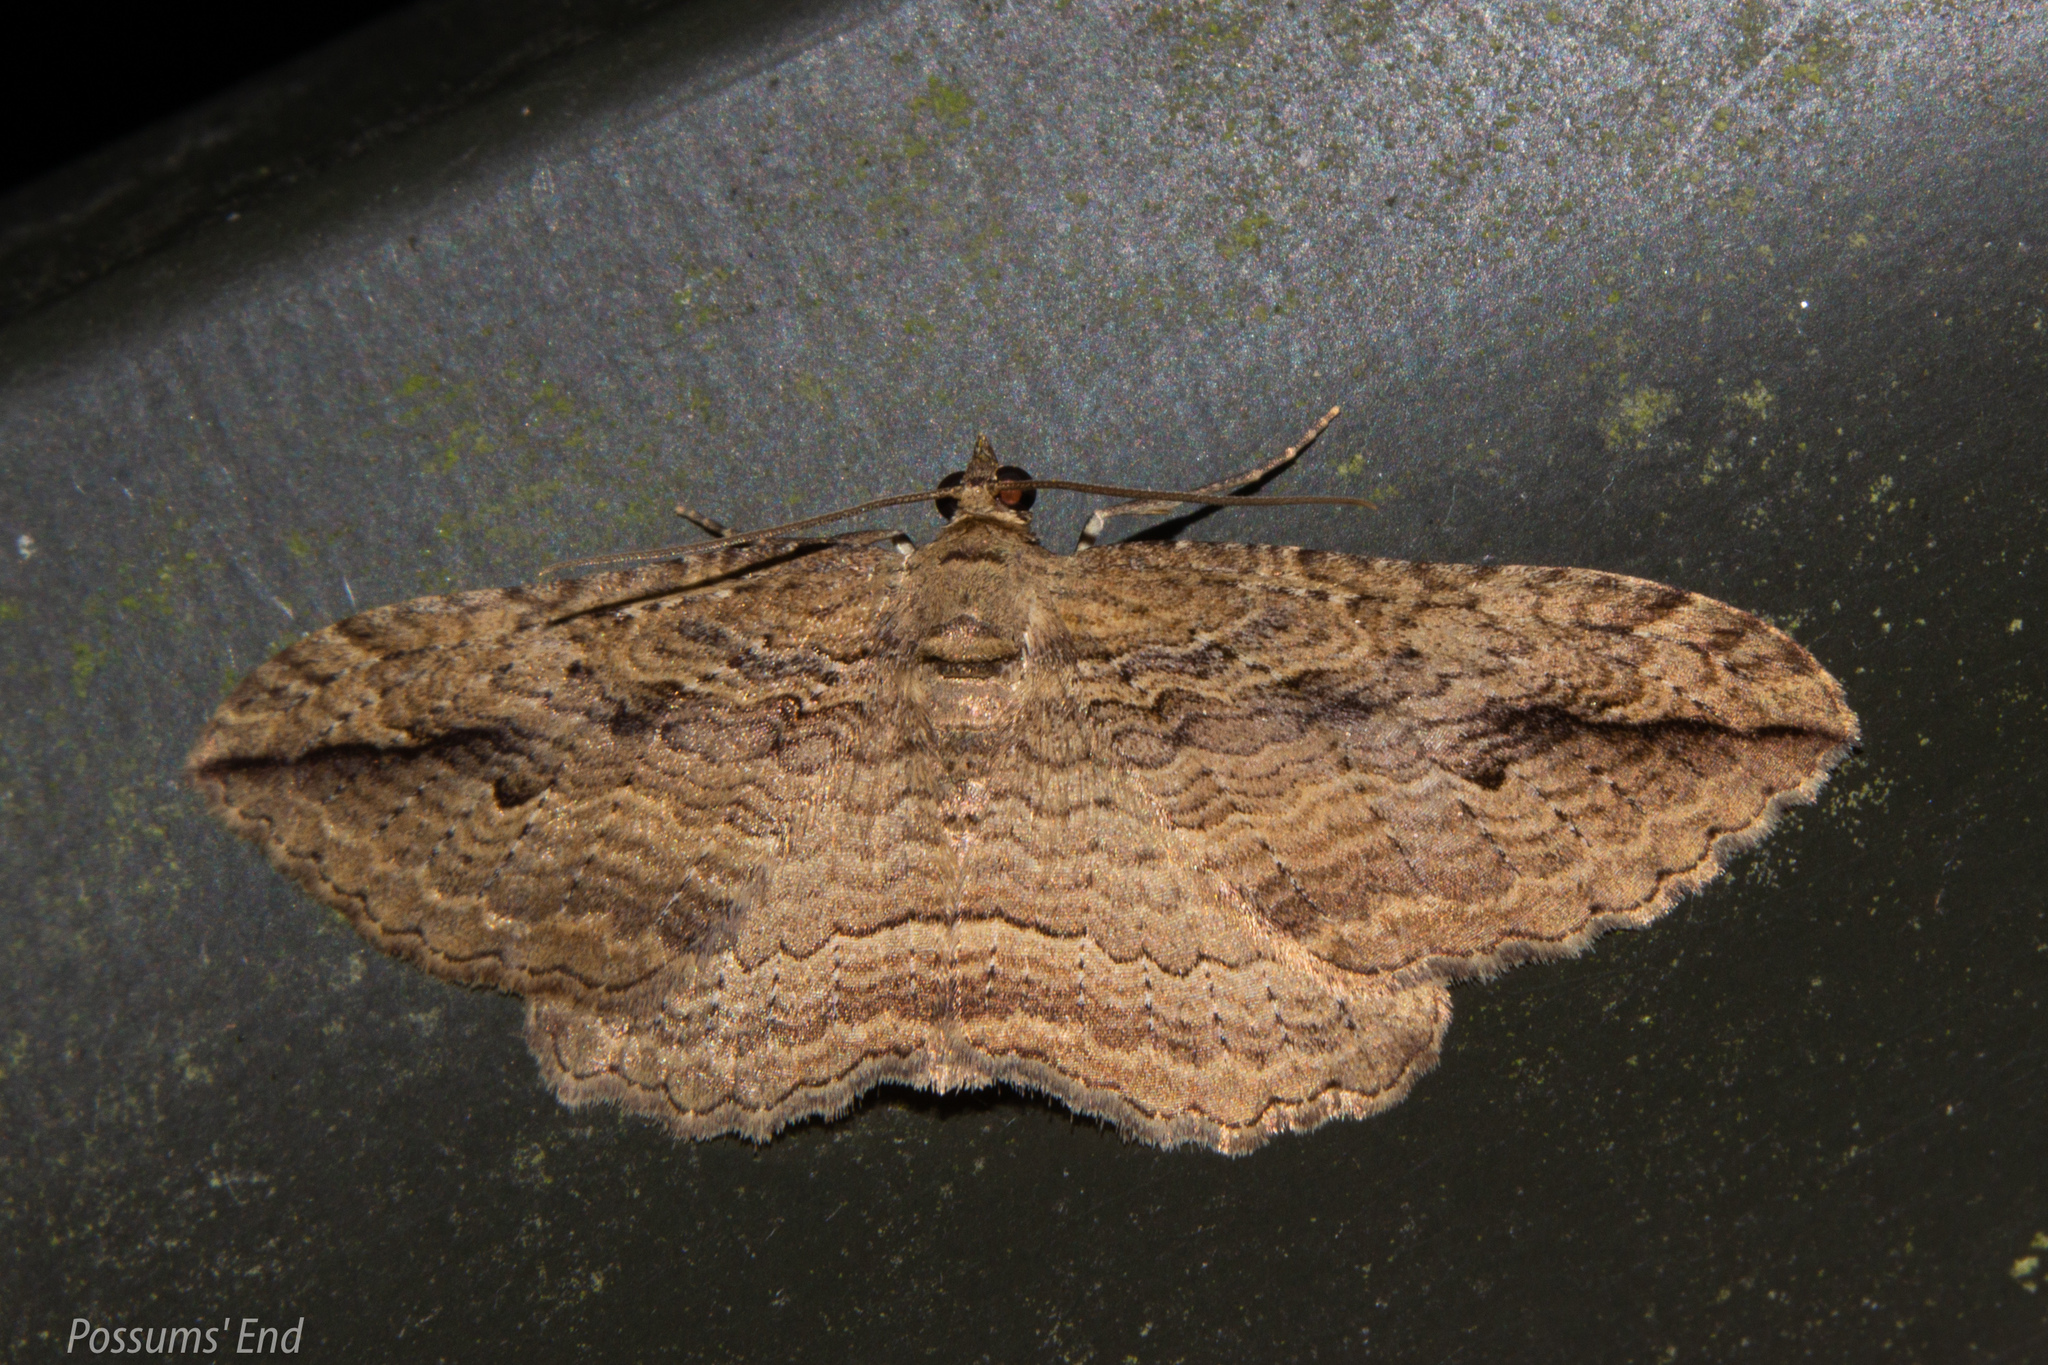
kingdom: Animalia
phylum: Arthropoda
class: Insecta
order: Lepidoptera
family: Geometridae
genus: Austrocidaria
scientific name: Austrocidaria gobiata
